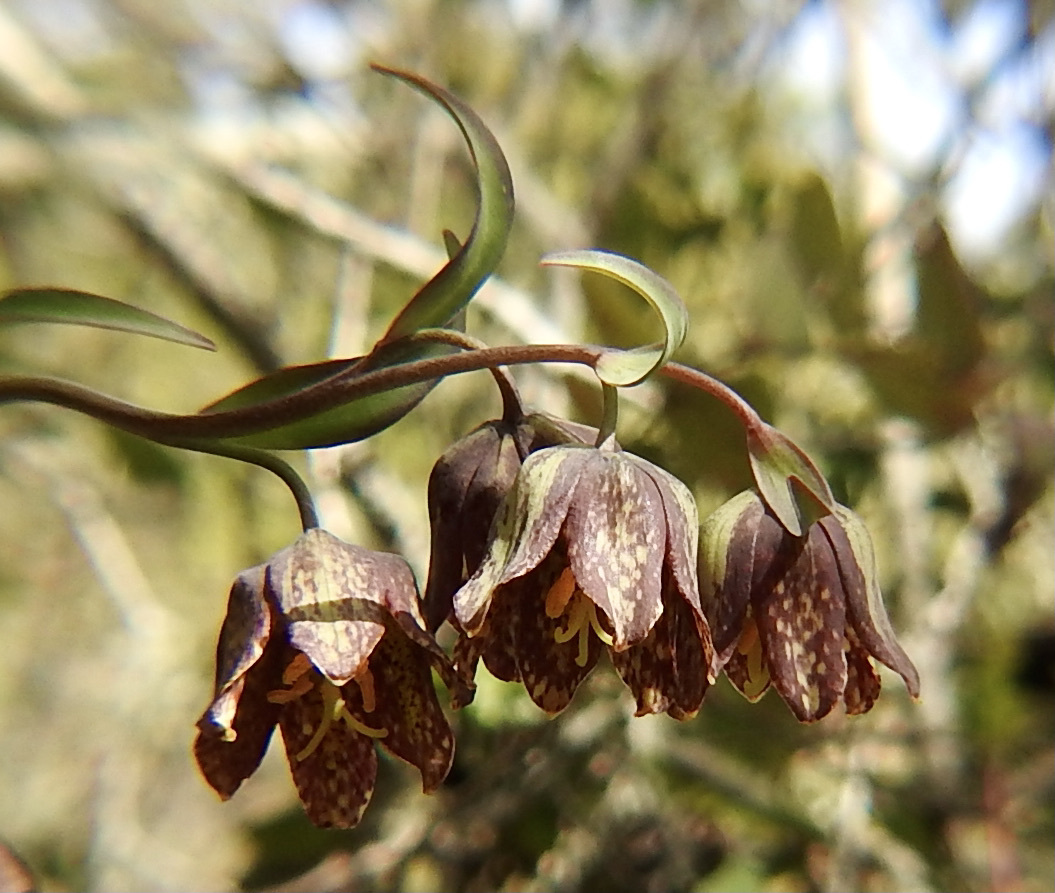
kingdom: Plantae
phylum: Tracheophyta
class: Liliopsida
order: Liliales
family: Liliaceae
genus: Fritillaria
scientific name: Fritillaria affinis
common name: Ojai fritillary
